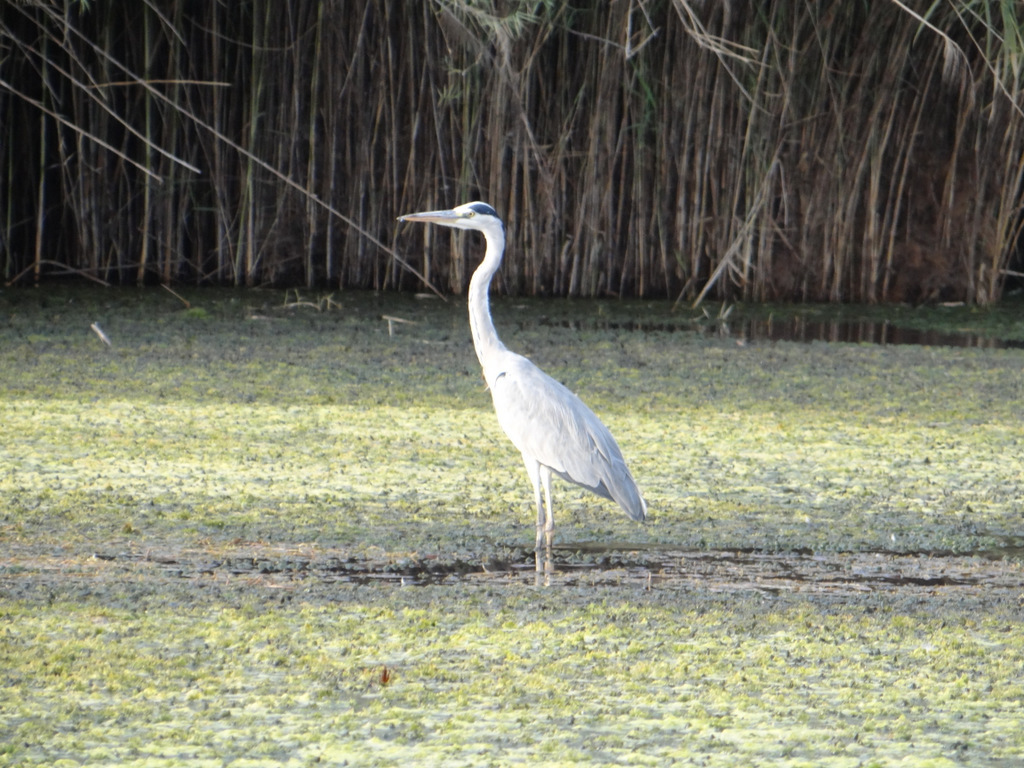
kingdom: Animalia
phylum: Chordata
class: Aves
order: Pelecaniformes
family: Ardeidae
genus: Ardea
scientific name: Ardea cinerea
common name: Grey heron
